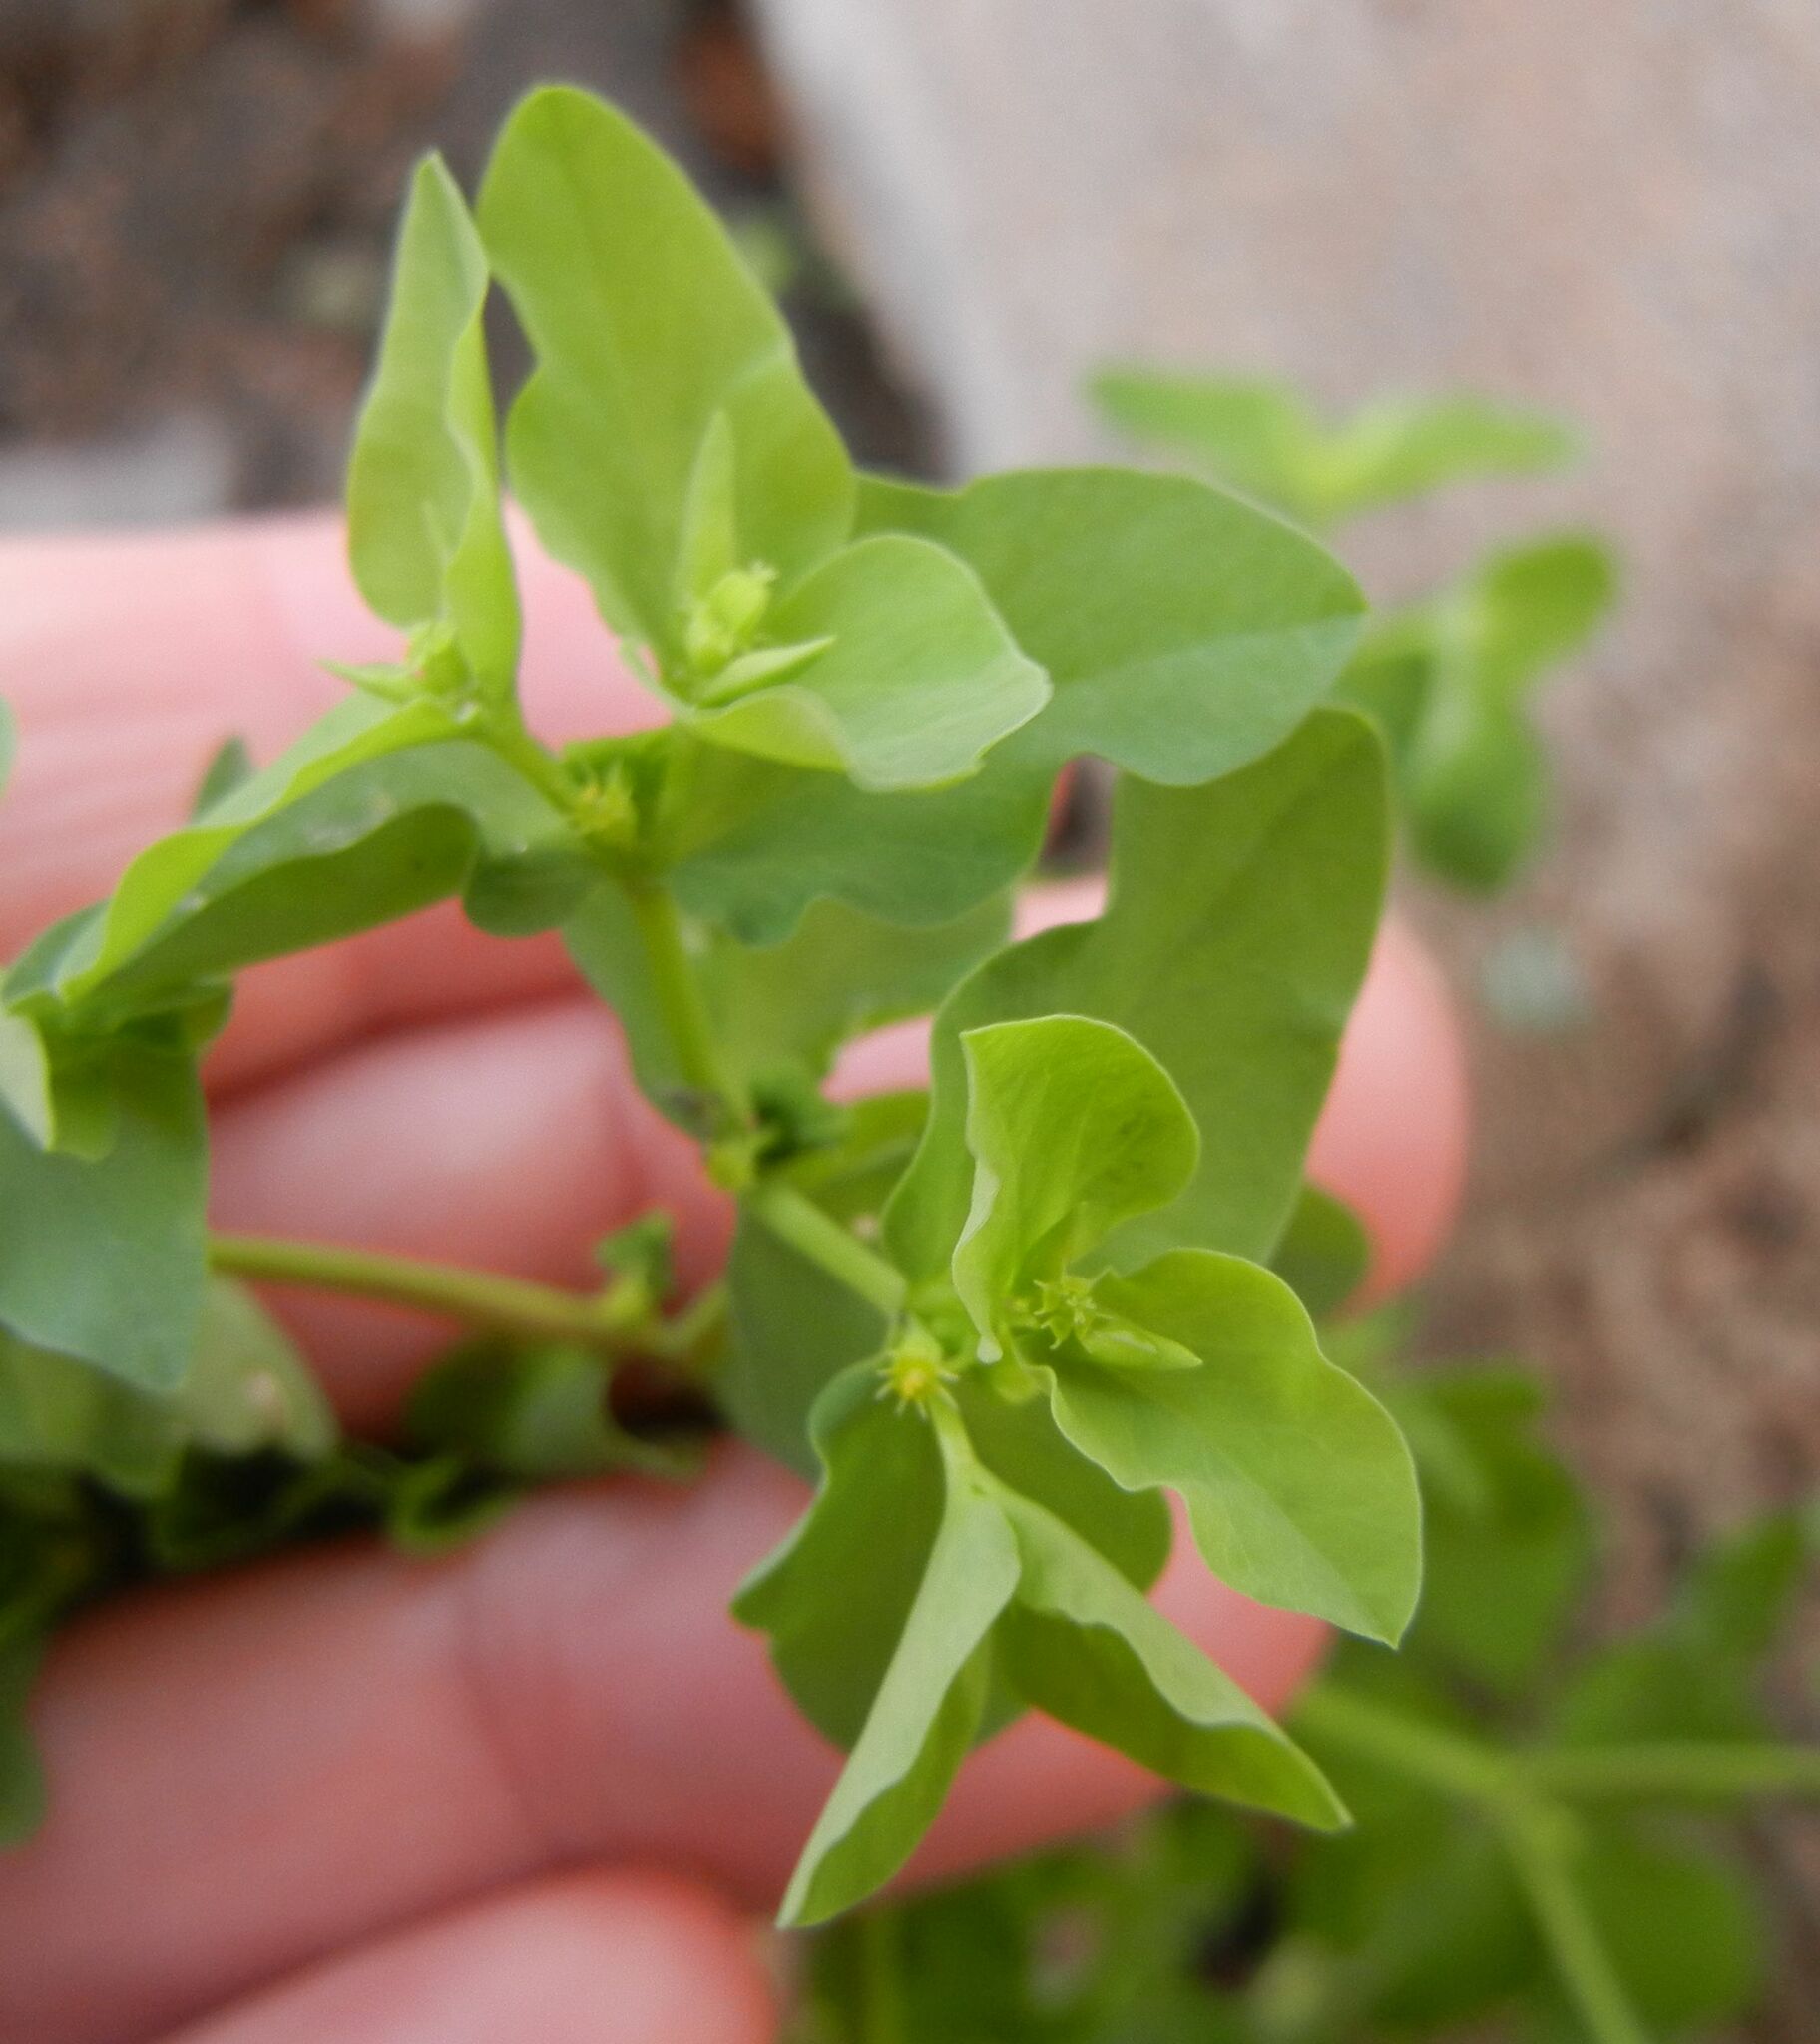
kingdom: Plantae
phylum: Tracheophyta
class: Magnoliopsida
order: Malpighiales
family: Euphorbiaceae
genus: Euphorbia
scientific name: Euphorbia peplus
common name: Petty spurge
